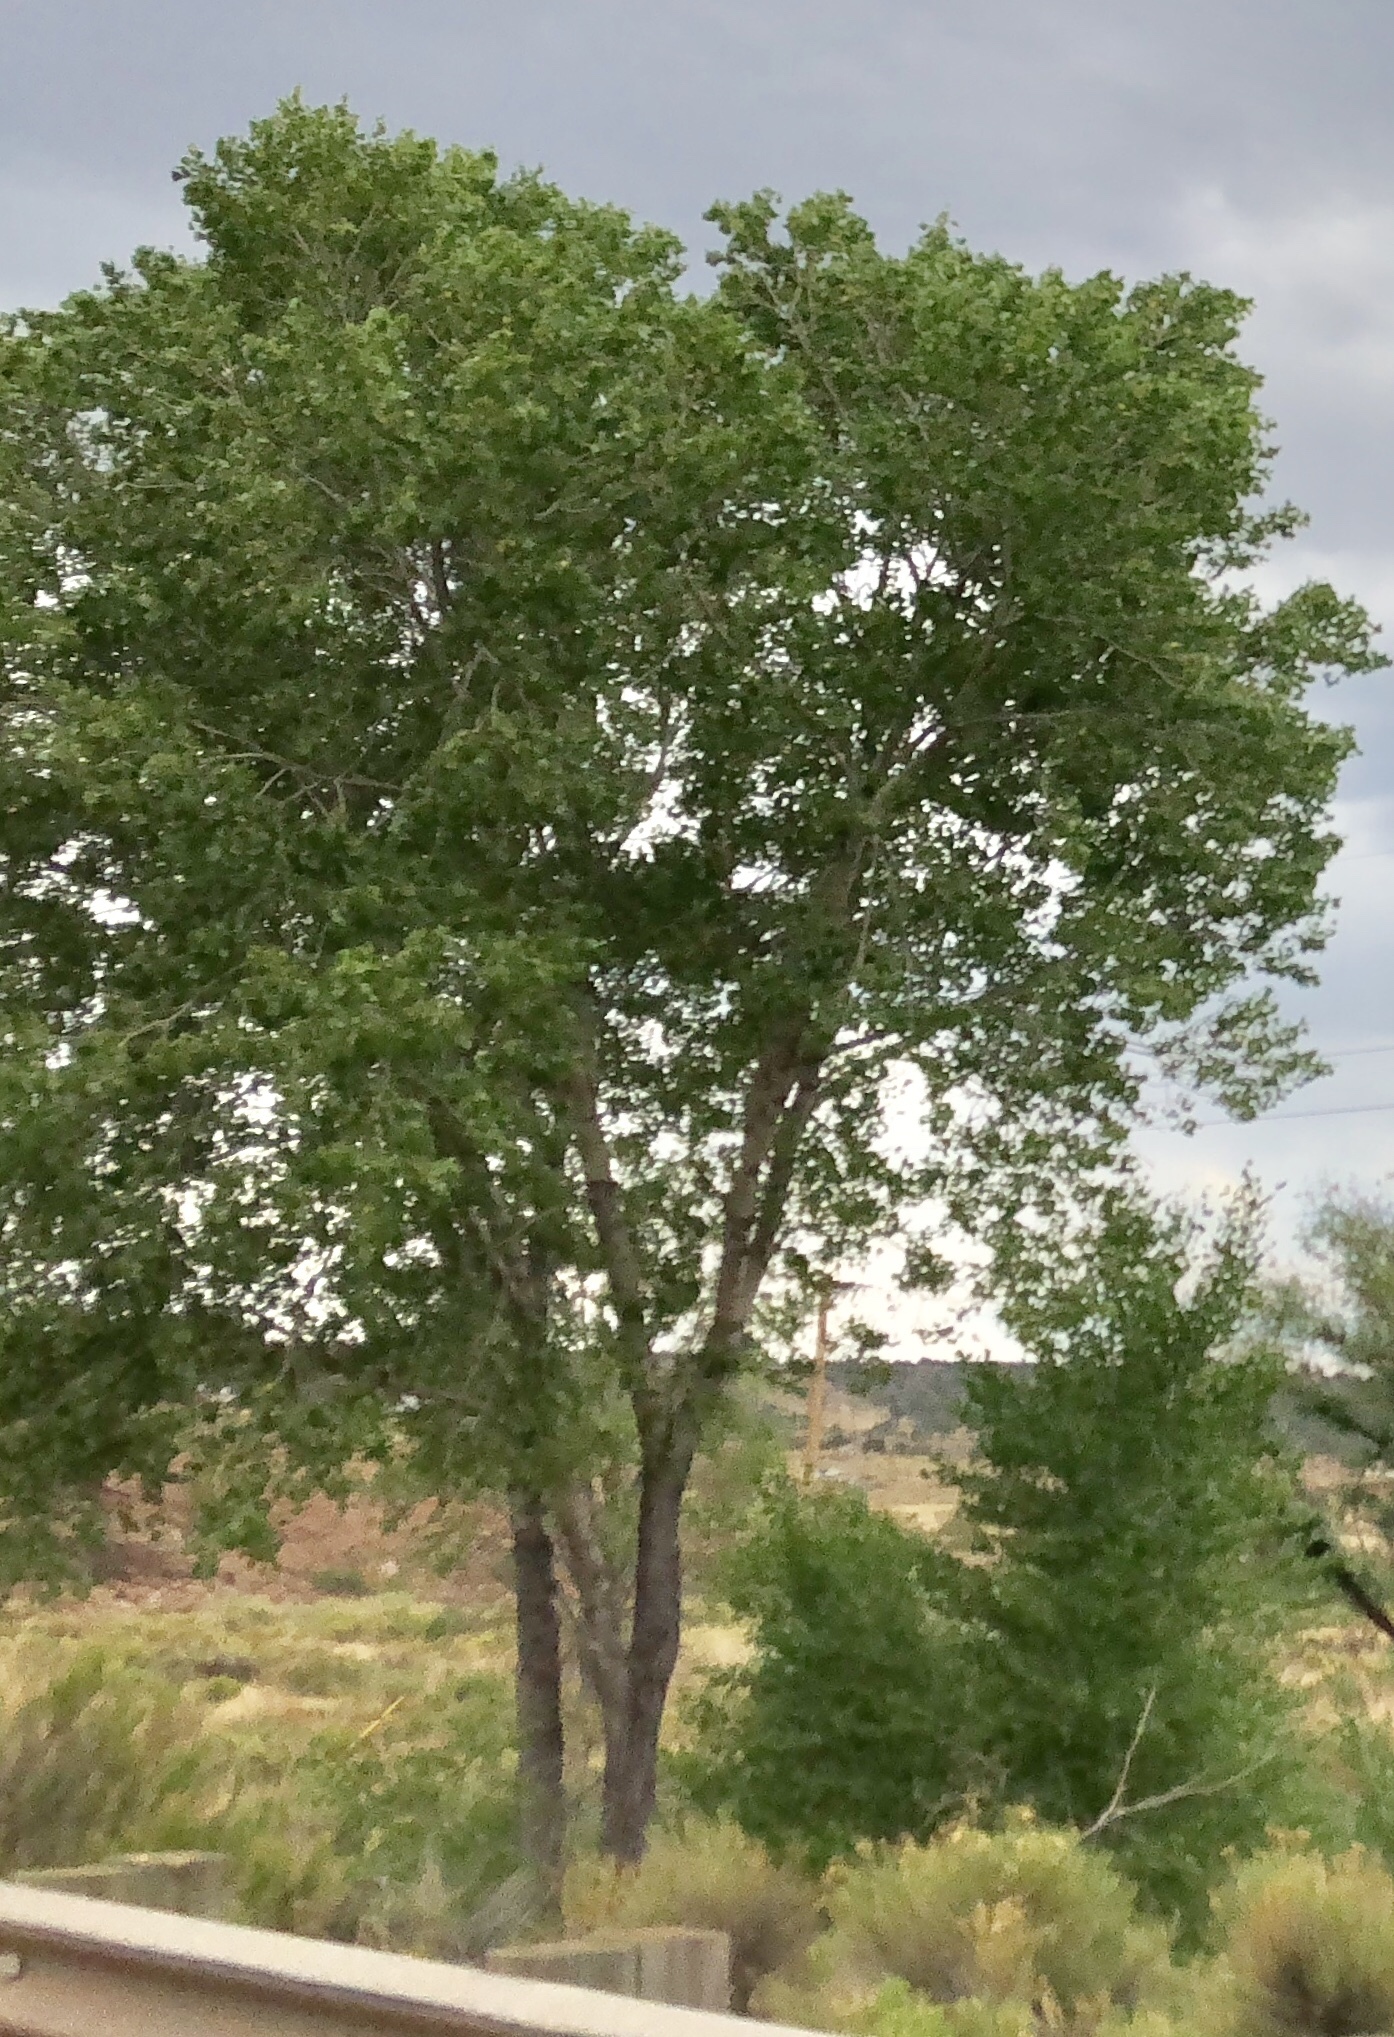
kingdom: Plantae
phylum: Tracheophyta
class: Magnoliopsida
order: Malpighiales
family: Salicaceae
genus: Populus
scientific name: Populus fremontii
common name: Fremont's cottonwood
